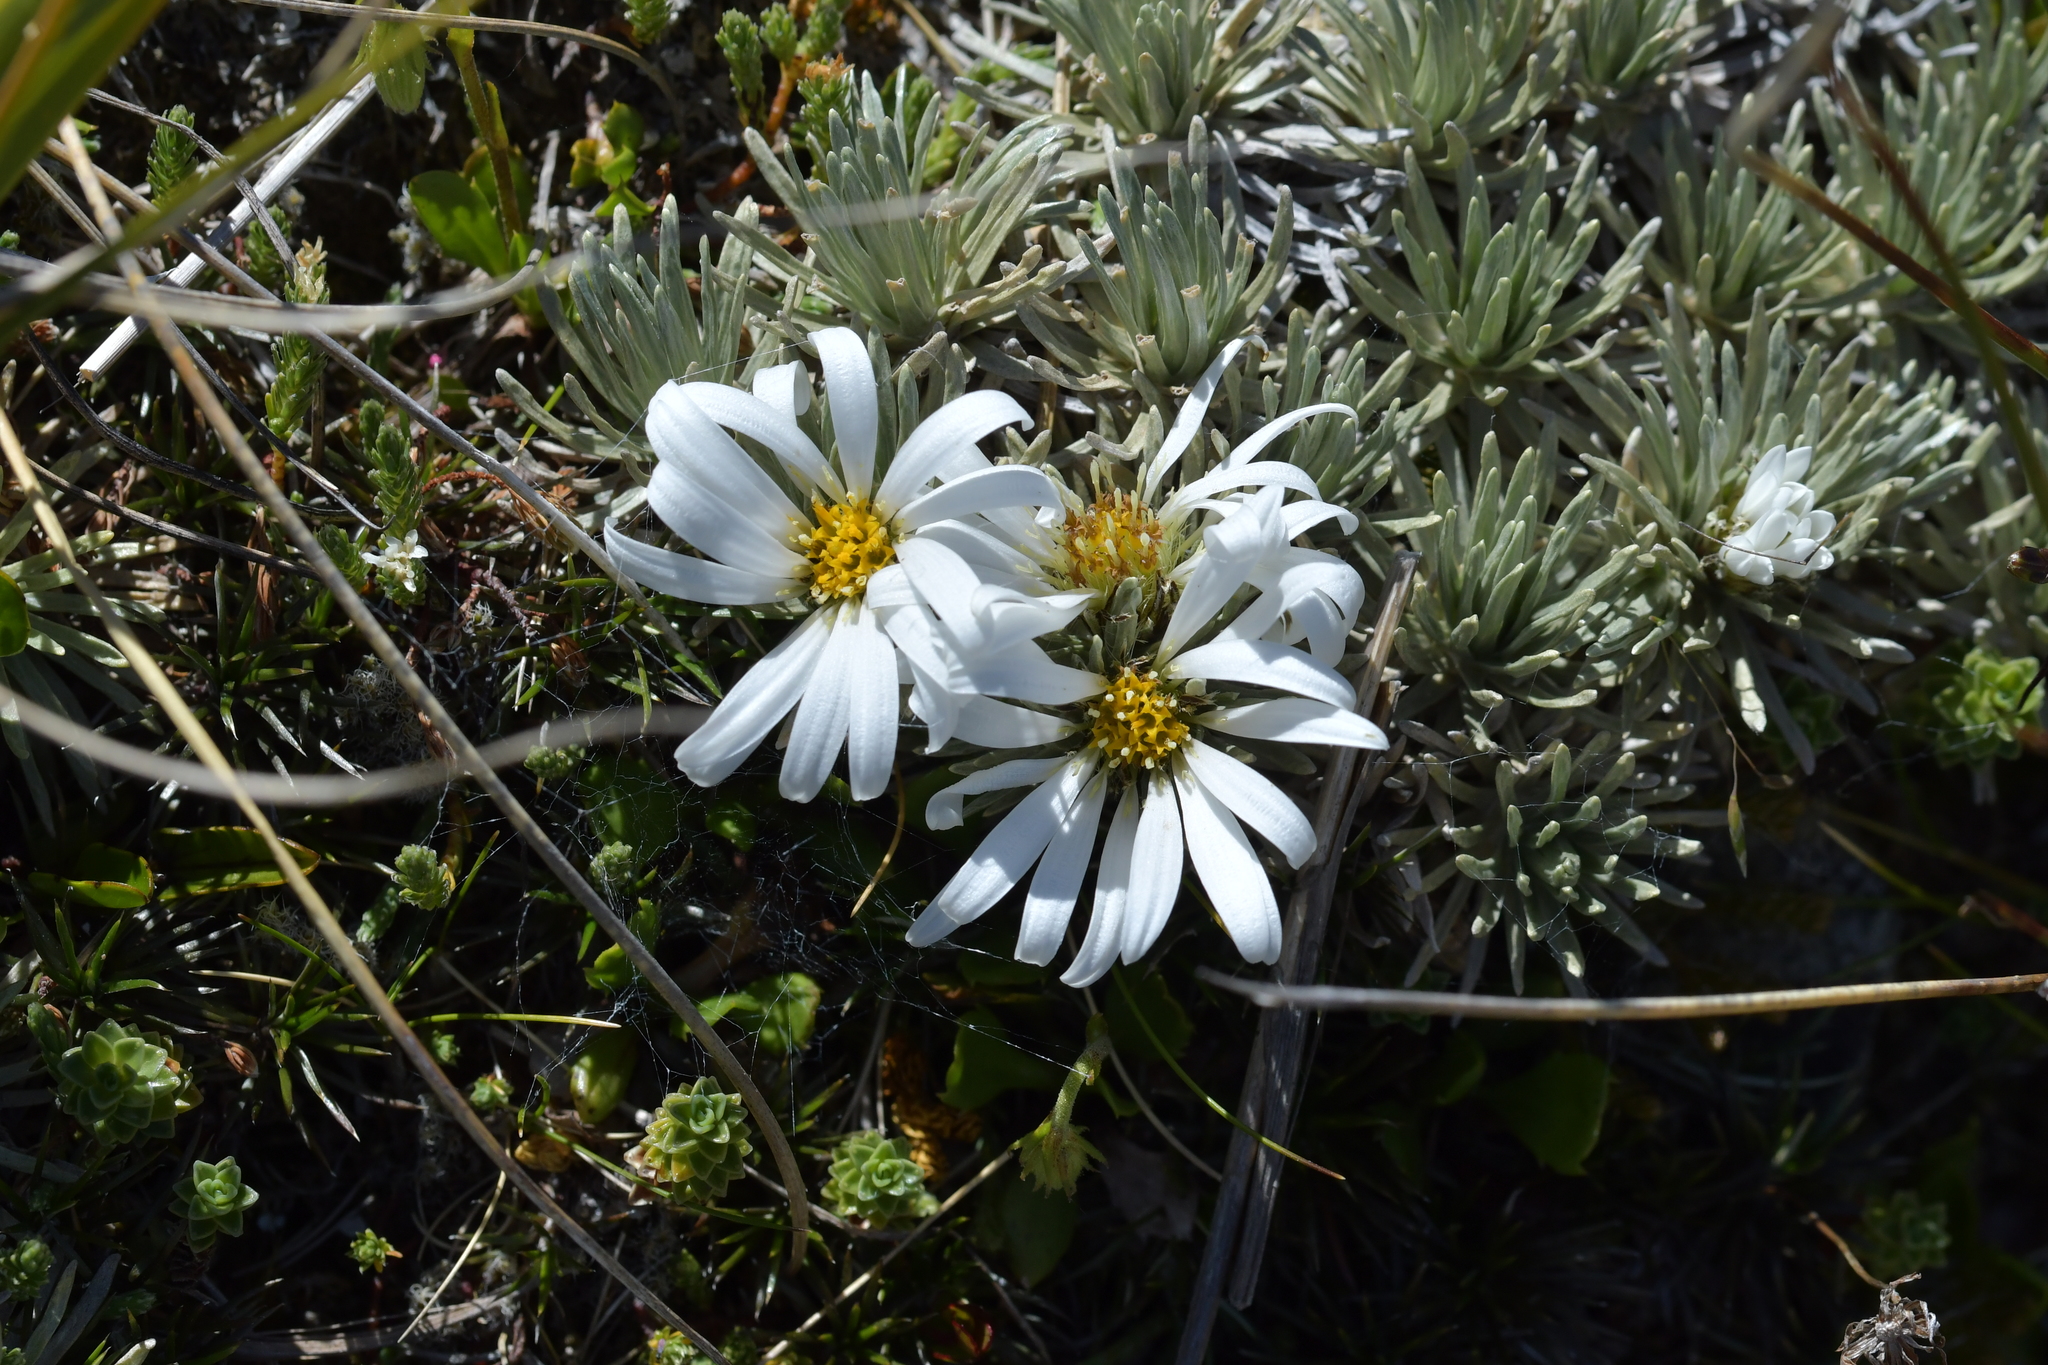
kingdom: Plantae
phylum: Tracheophyta
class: Magnoliopsida
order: Asterales
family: Asteraceae
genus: Celmisia
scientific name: Celmisia sessiliflora
